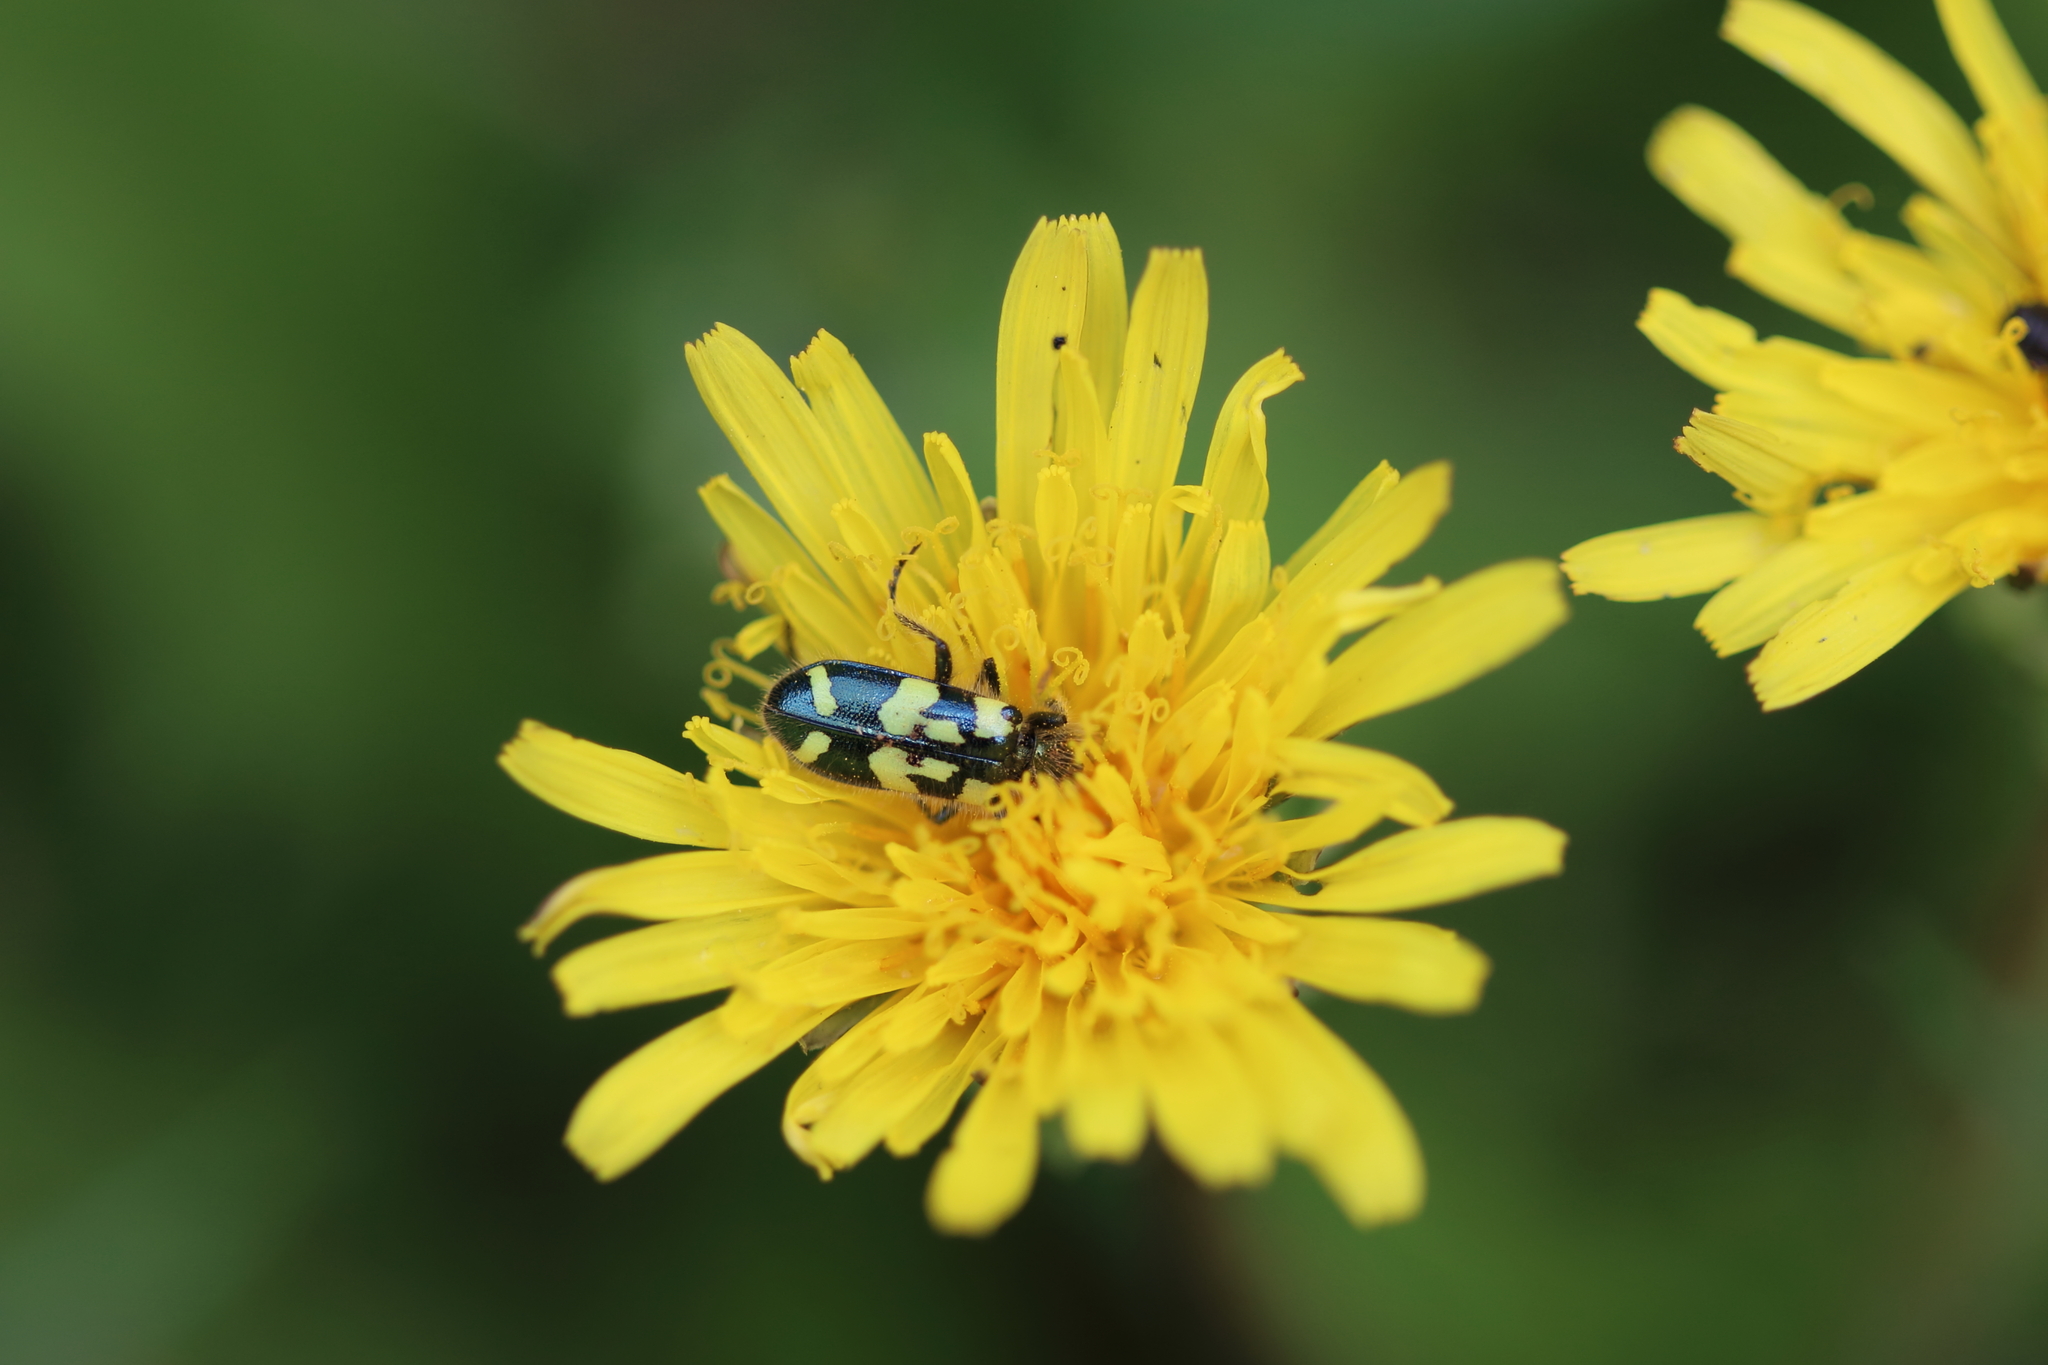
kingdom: Animalia
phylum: Arthropoda
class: Insecta
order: Coleoptera
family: Cleridae
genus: Trichodes
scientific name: Trichodes ornatus
